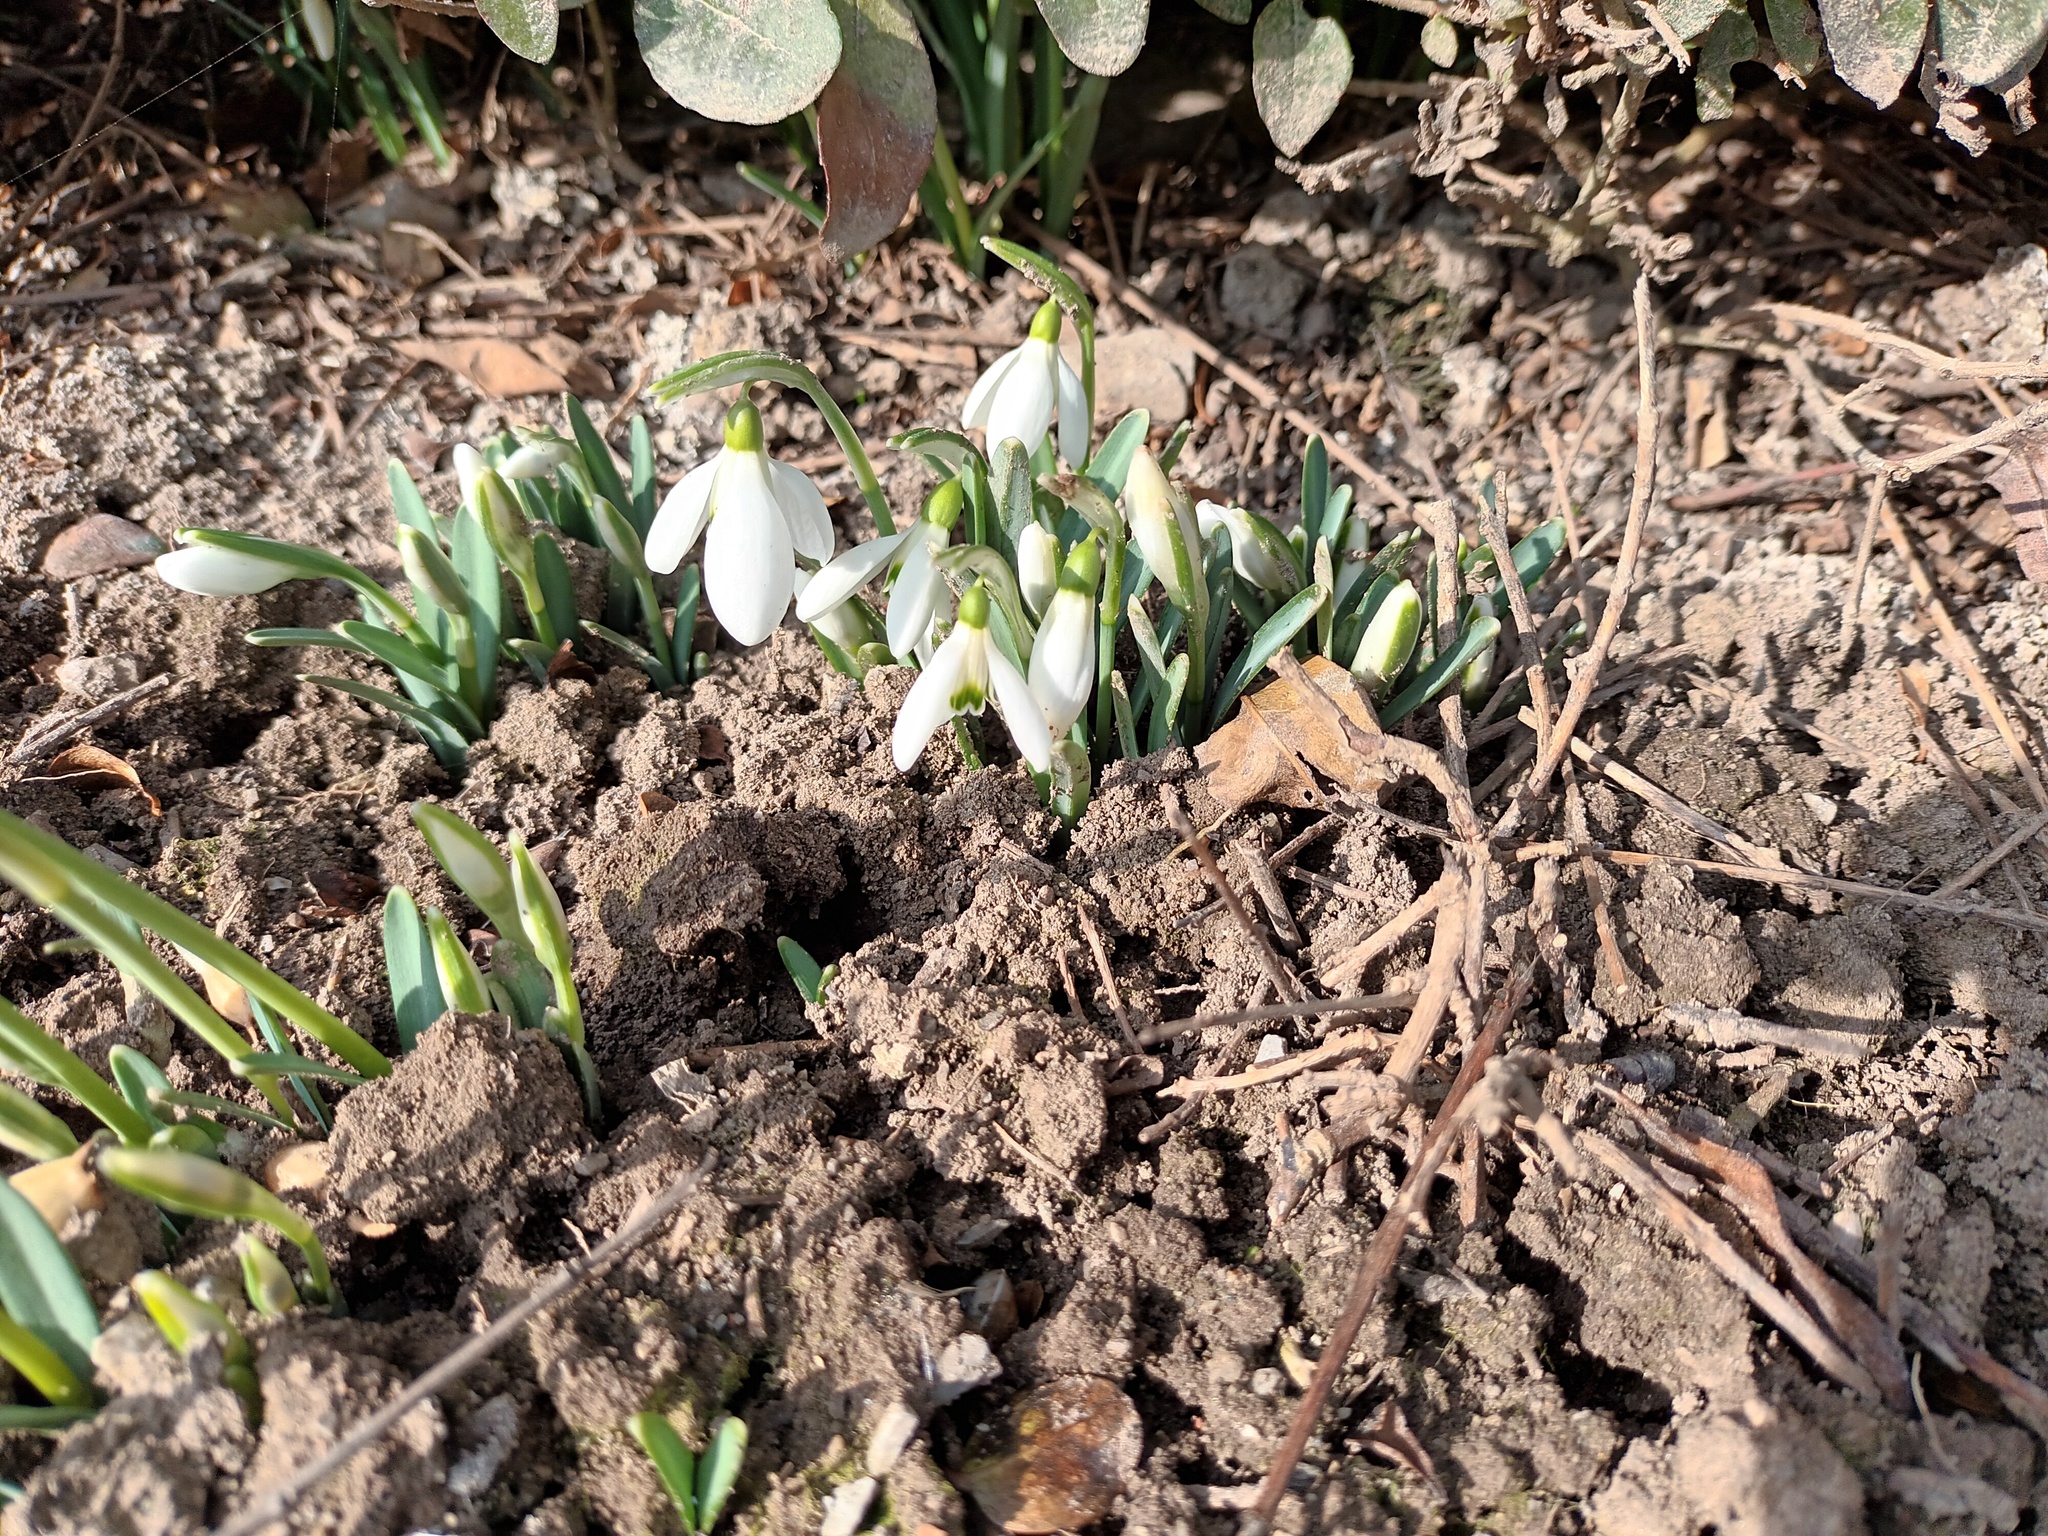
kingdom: Plantae
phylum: Tracheophyta
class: Liliopsida
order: Asparagales
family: Amaryllidaceae
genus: Galanthus
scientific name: Galanthus nivalis
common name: Snowdrop
